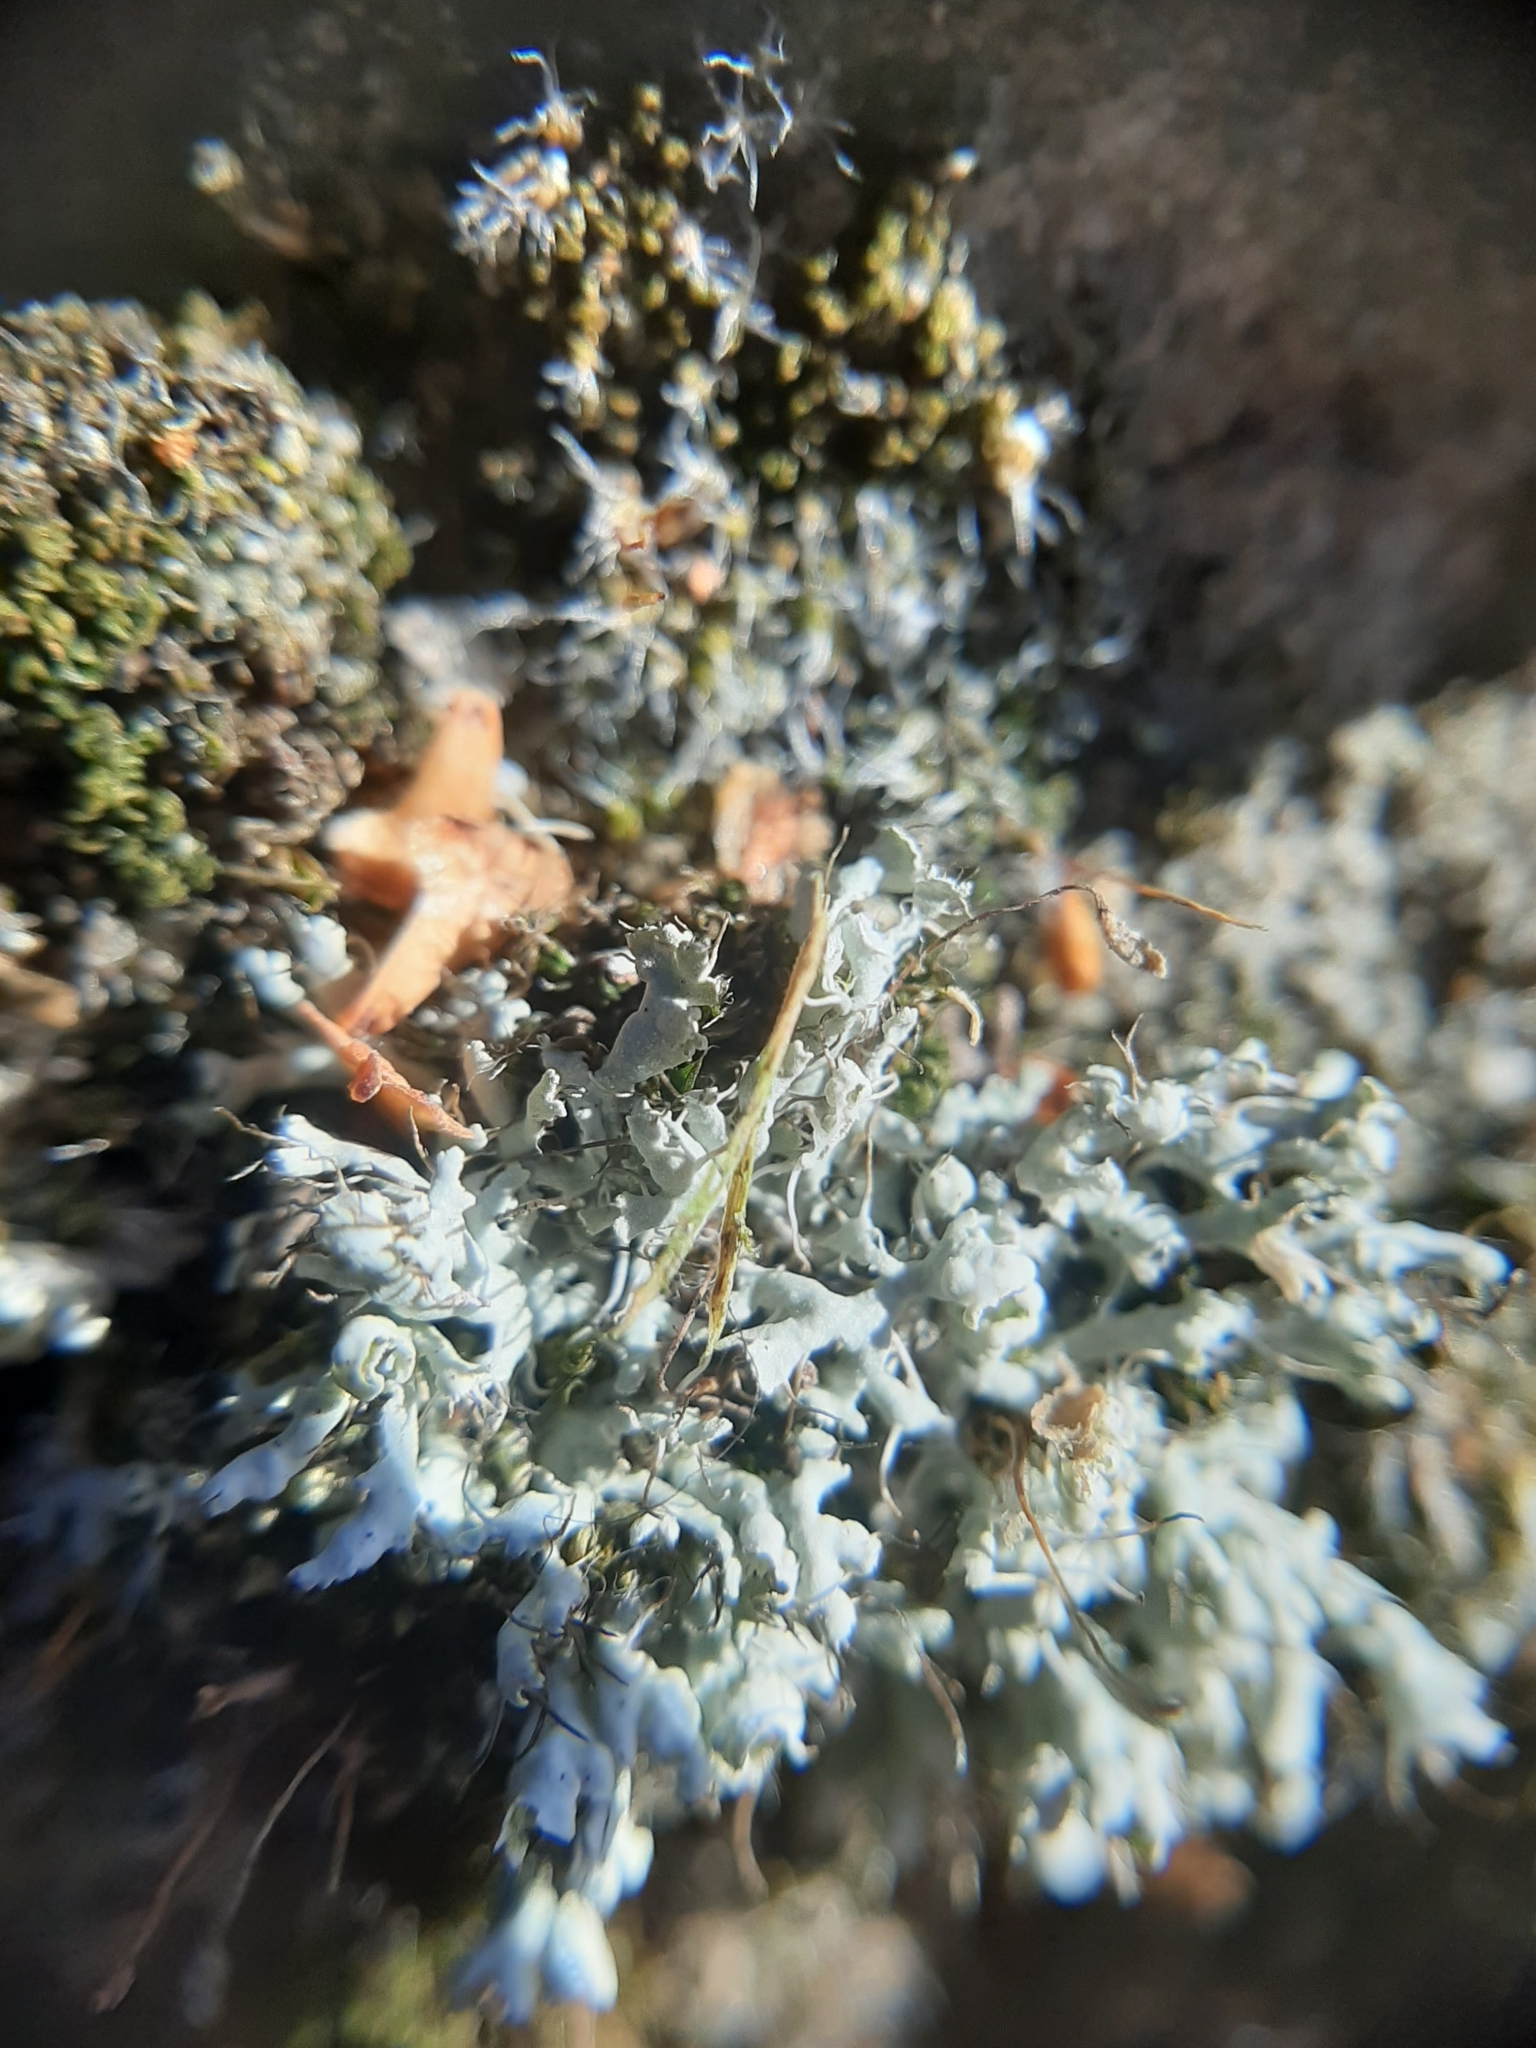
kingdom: Fungi
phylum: Ascomycota
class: Lecanoromycetes
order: Caliciales
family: Physciaceae
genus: Physcia
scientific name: Physcia adscendens
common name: Hooded rosette lichen
